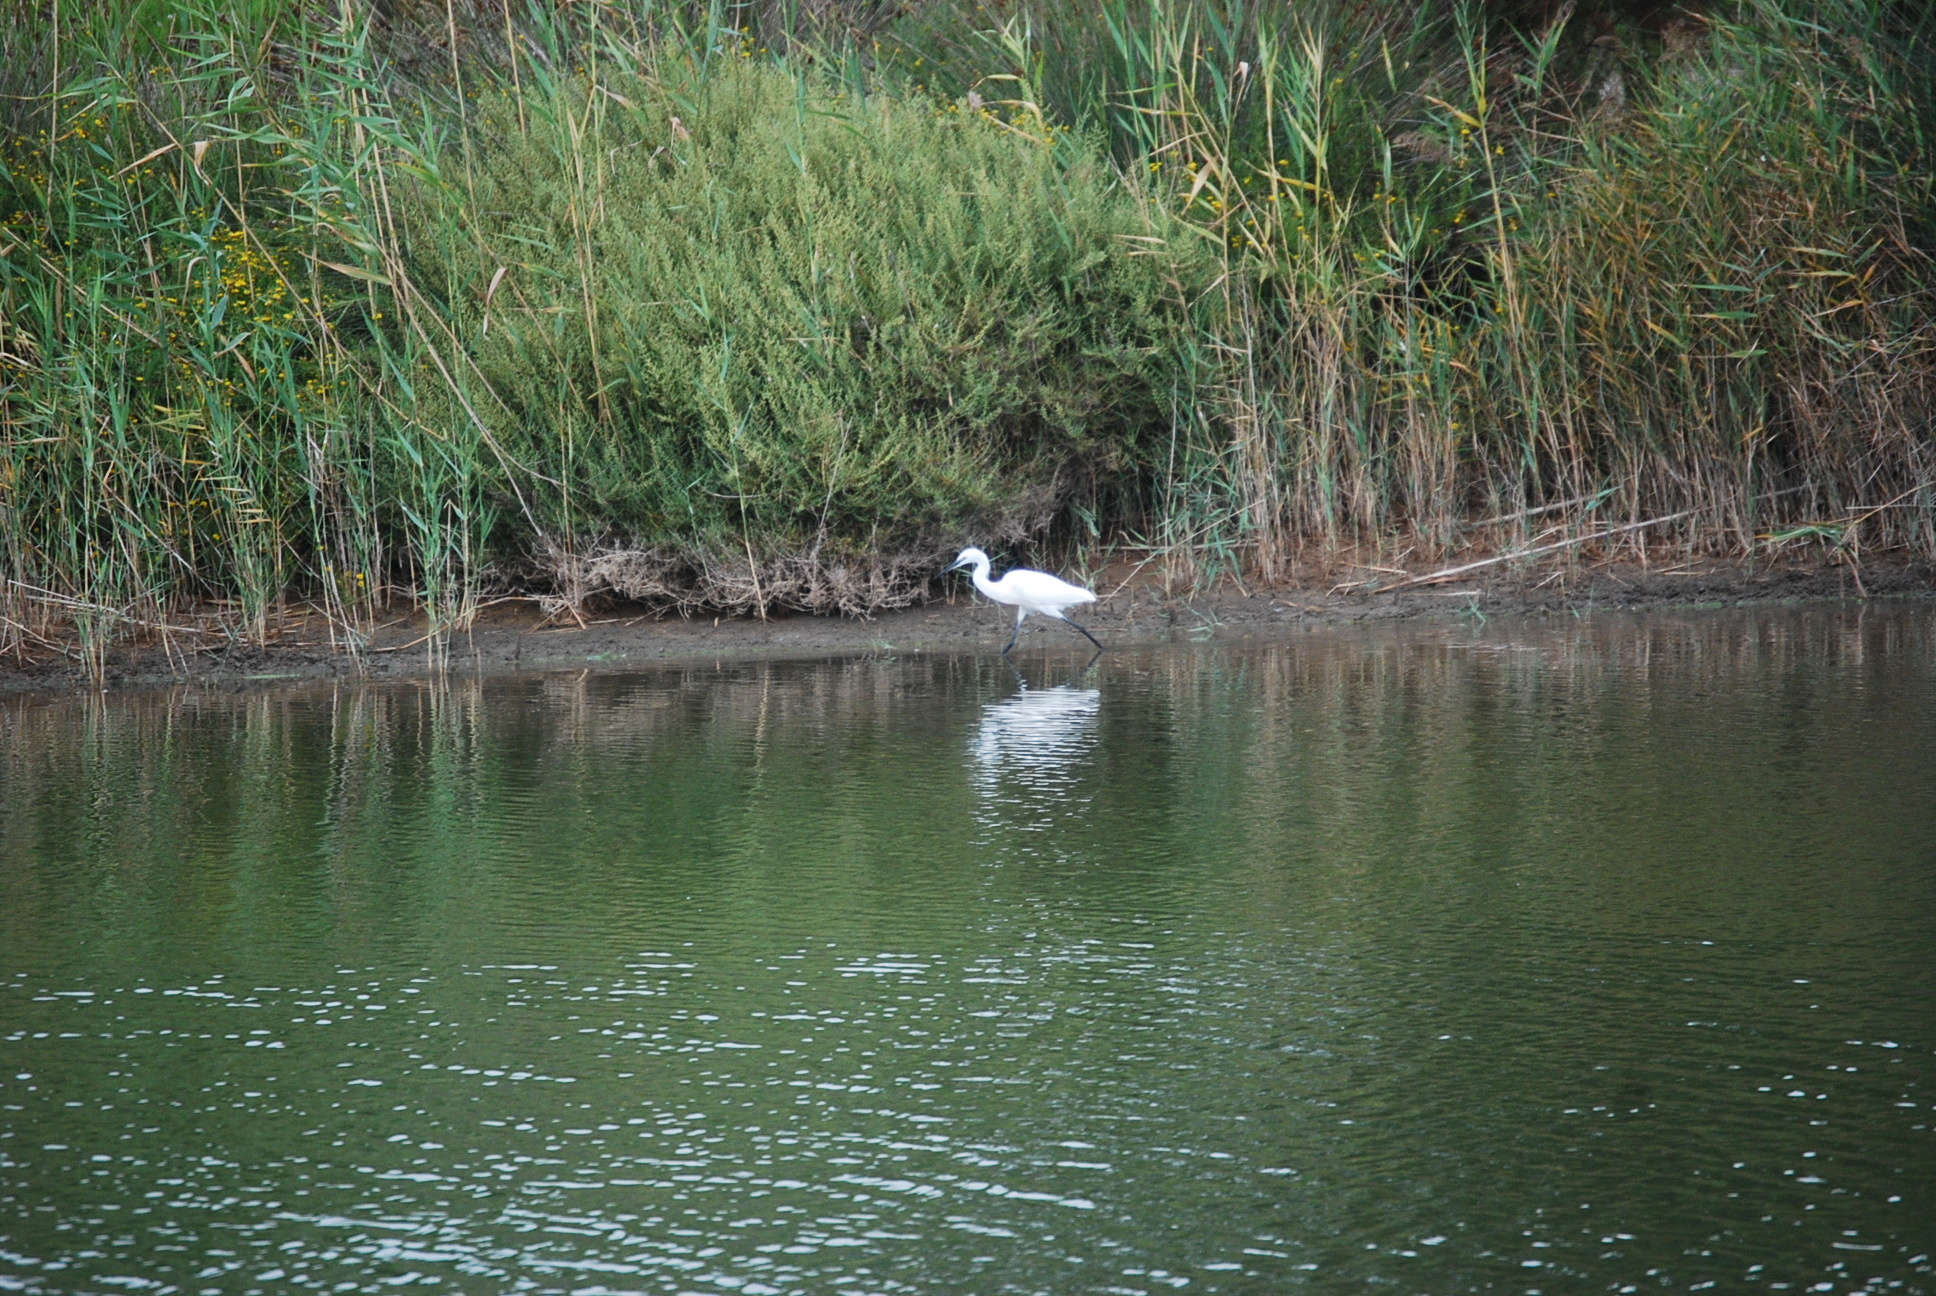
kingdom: Animalia
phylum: Chordata
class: Aves
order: Pelecaniformes
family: Ardeidae
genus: Egretta
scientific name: Egretta garzetta
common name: Little egret
